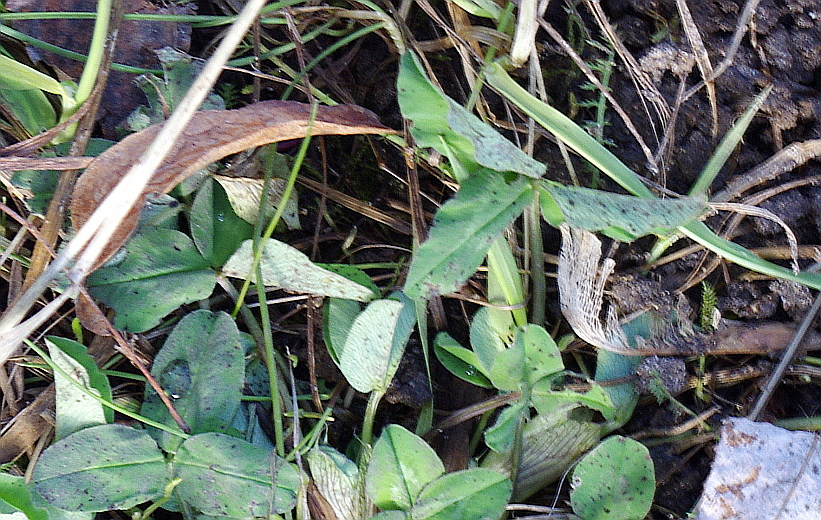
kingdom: Plantae
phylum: Tracheophyta
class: Magnoliopsida
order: Fabales
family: Fabaceae
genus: Trifolium
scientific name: Trifolium pratense
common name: Red clover
